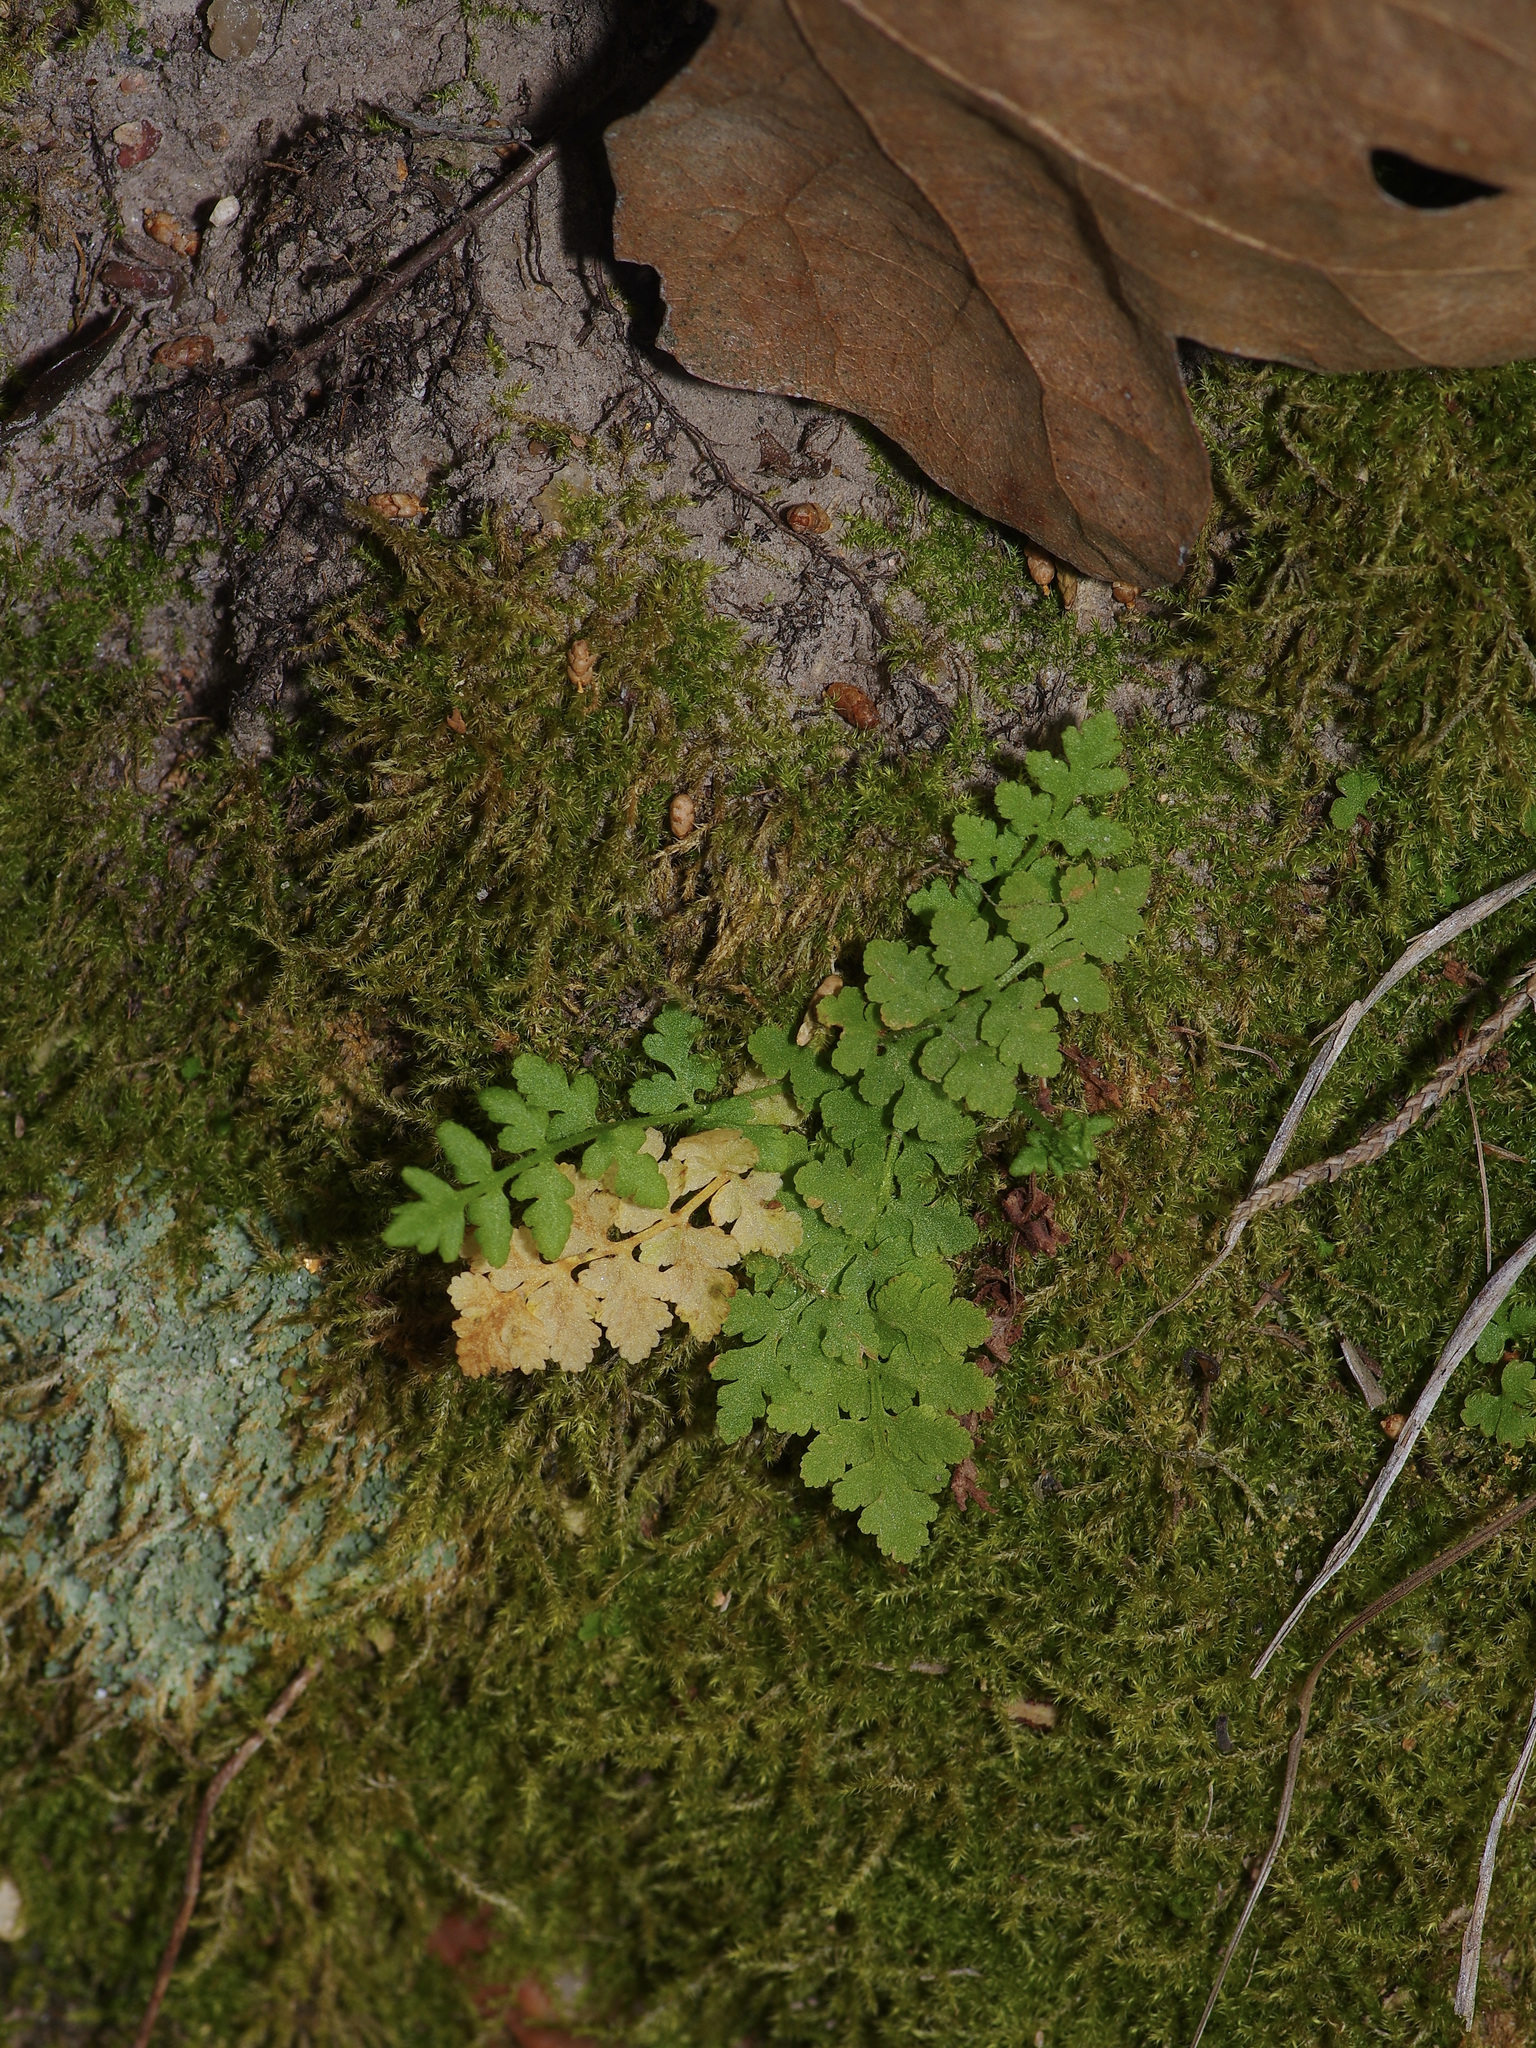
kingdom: Plantae
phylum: Tracheophyta
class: Polypodiopsida
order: Polypodiales
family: Woodsiaceae
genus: Physematium
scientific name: Physematium obtusum
